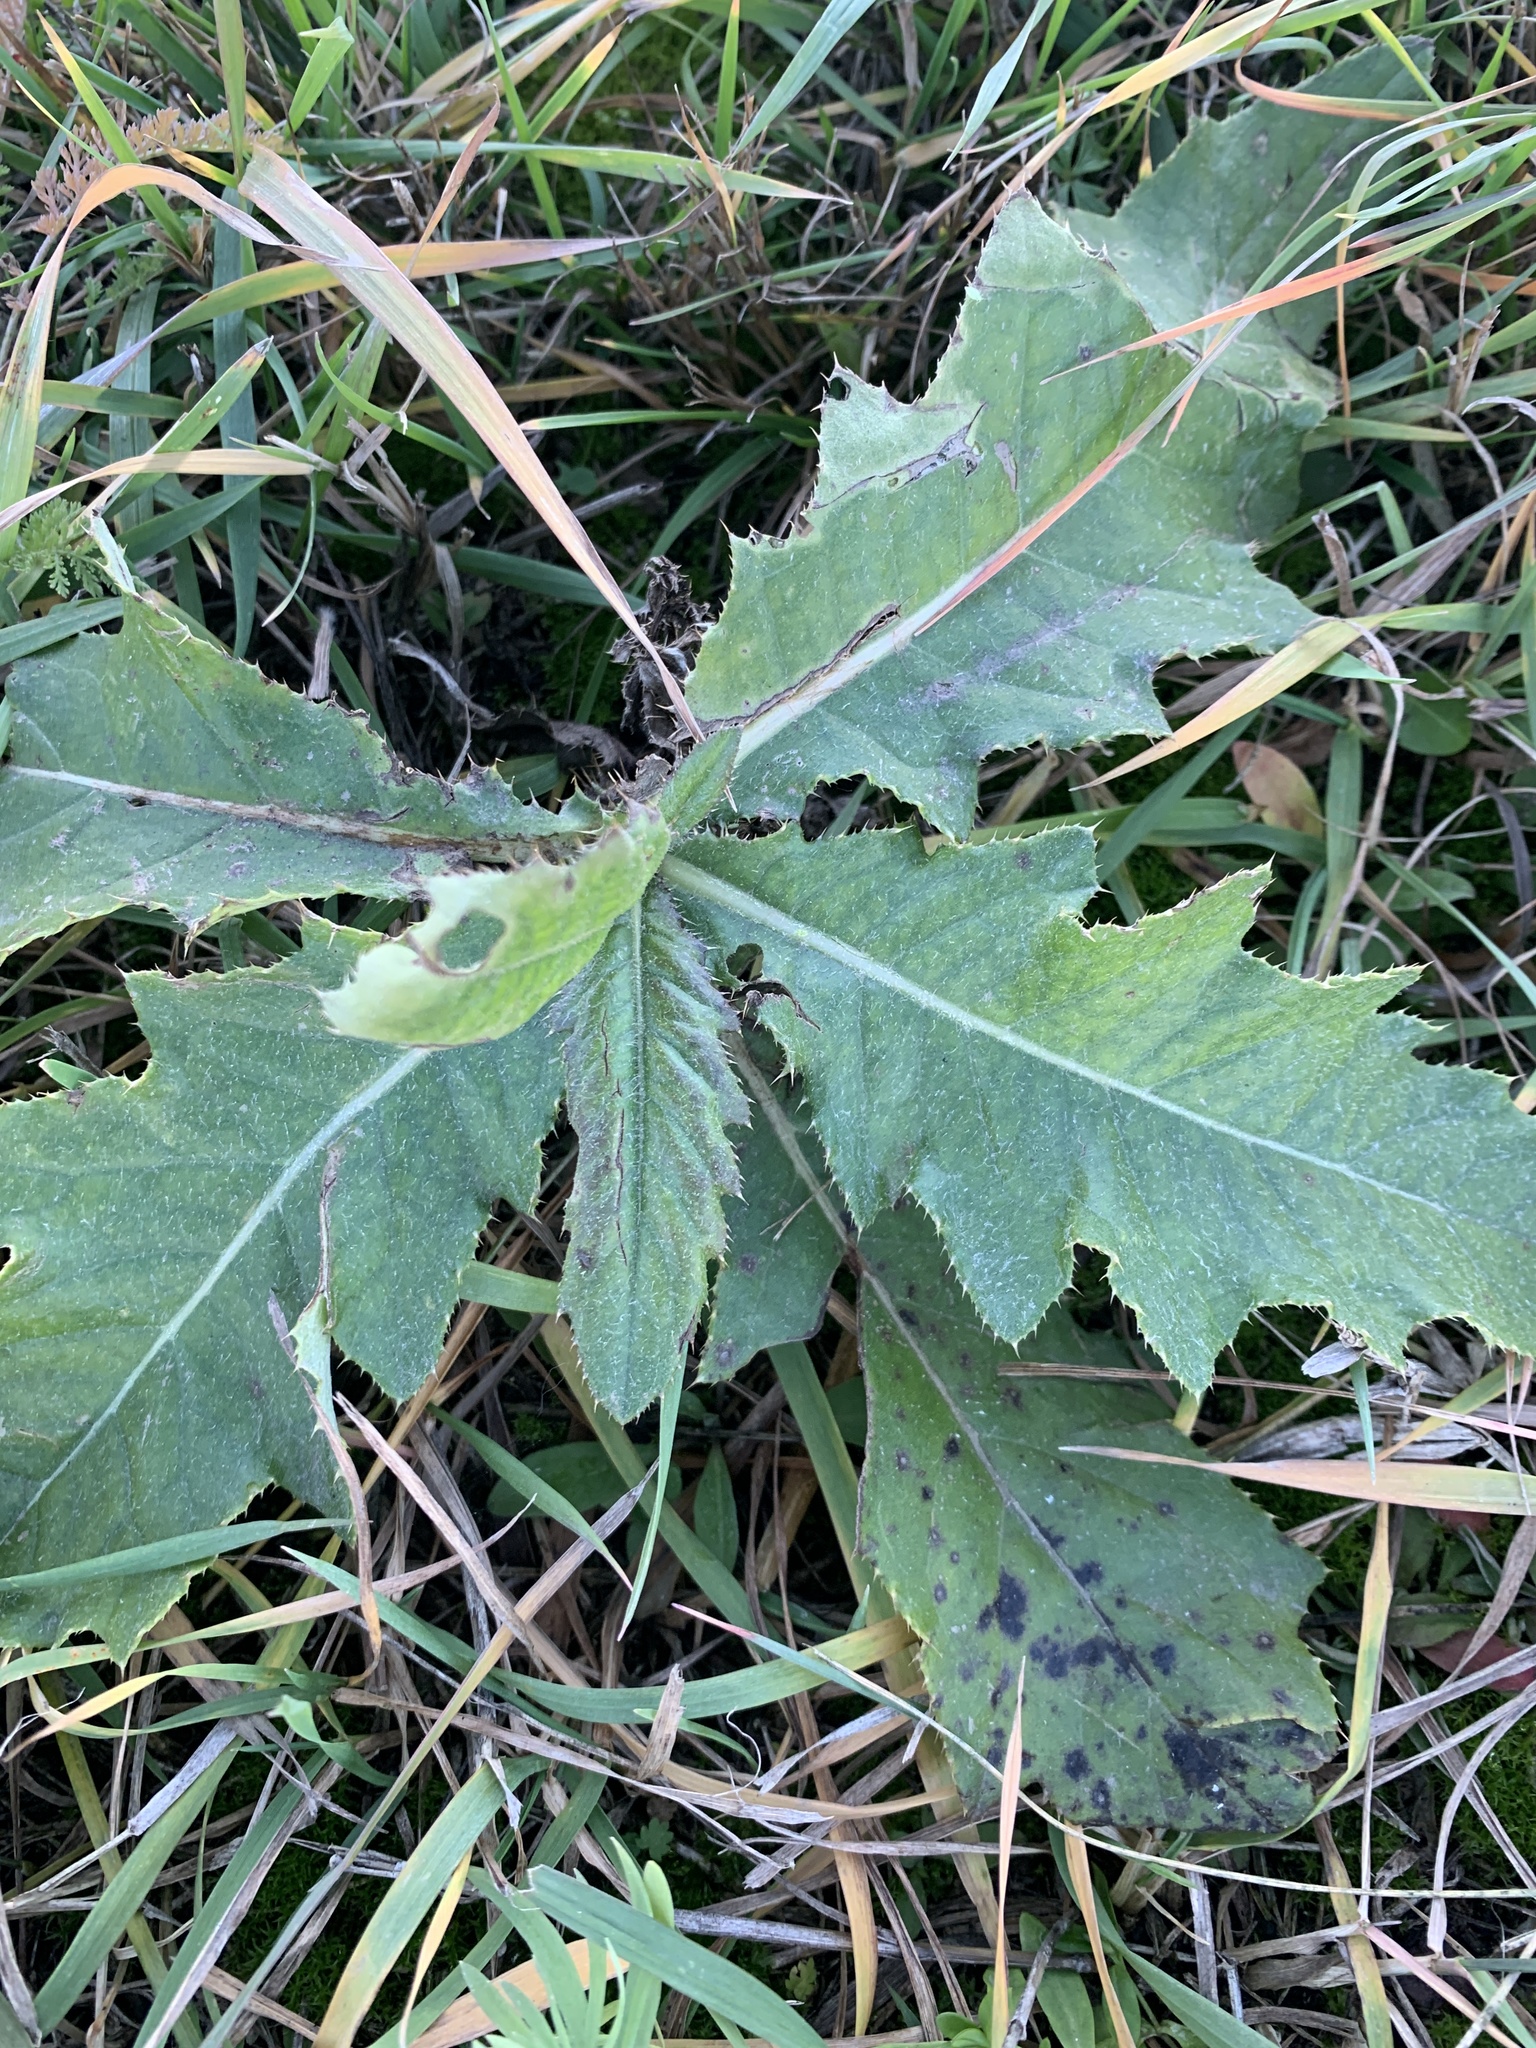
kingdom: Plantae
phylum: Tracheophyta
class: Magnoliopsida
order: Asterales
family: Asteraceae
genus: Cirsium
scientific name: Cirsium arvense
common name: Creeping thistle
